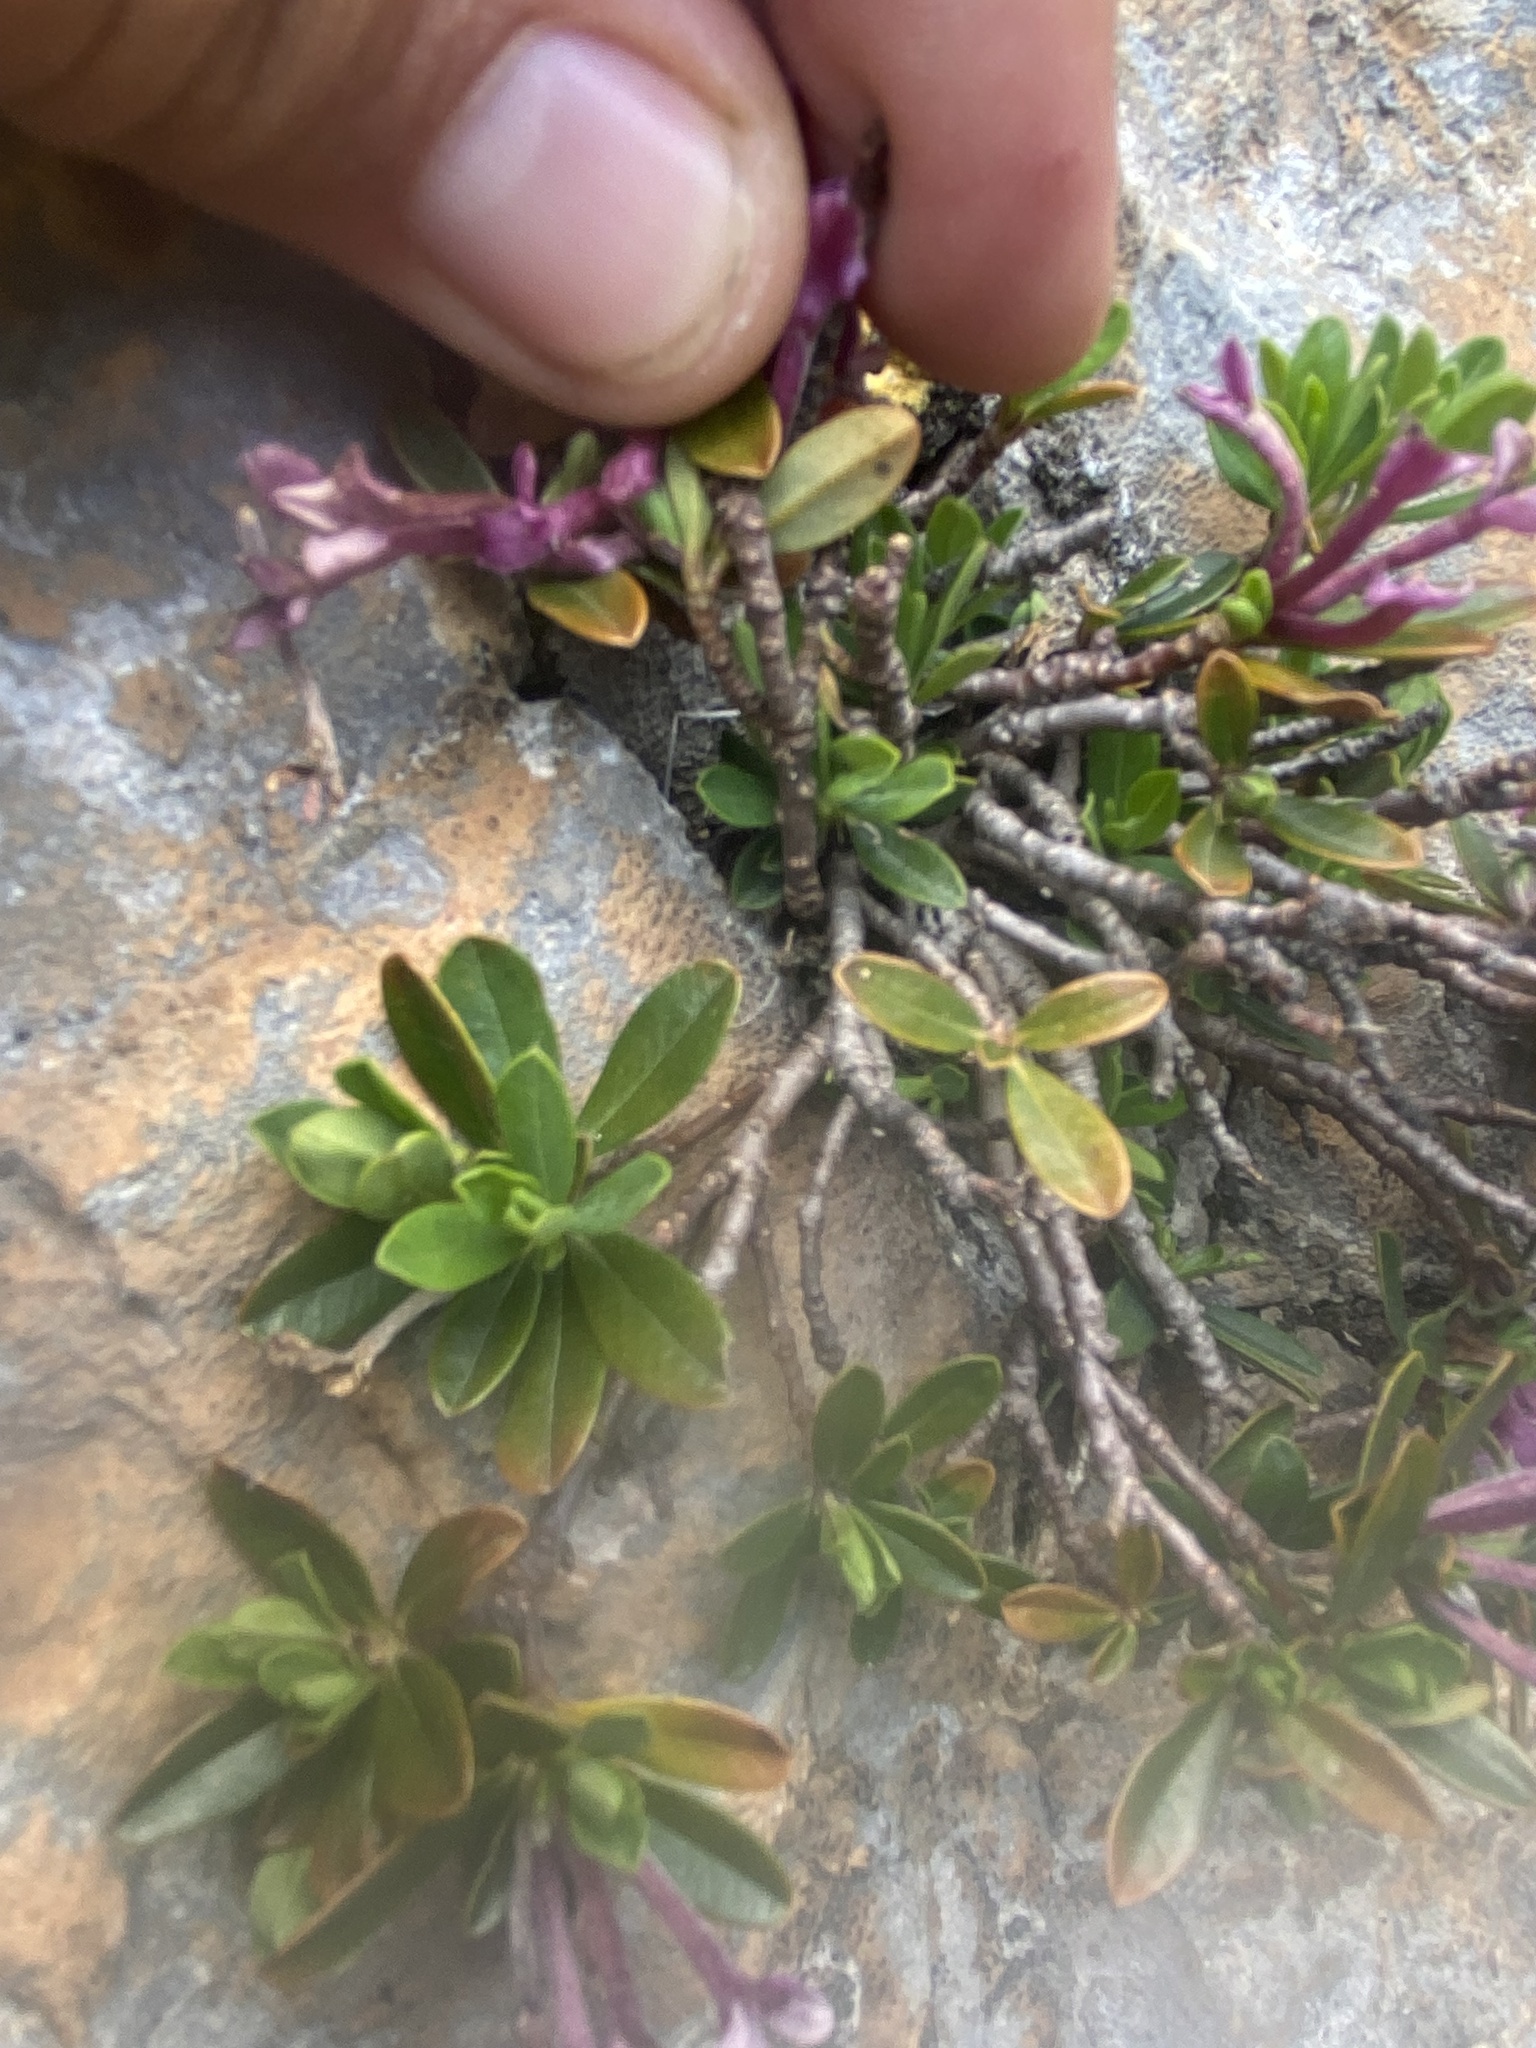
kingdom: Plantae
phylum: Tracheophyta
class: Magnoliopsida
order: Malvales
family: Thymelaeaceae
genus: Daphne
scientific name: Daphne pseudosericea
